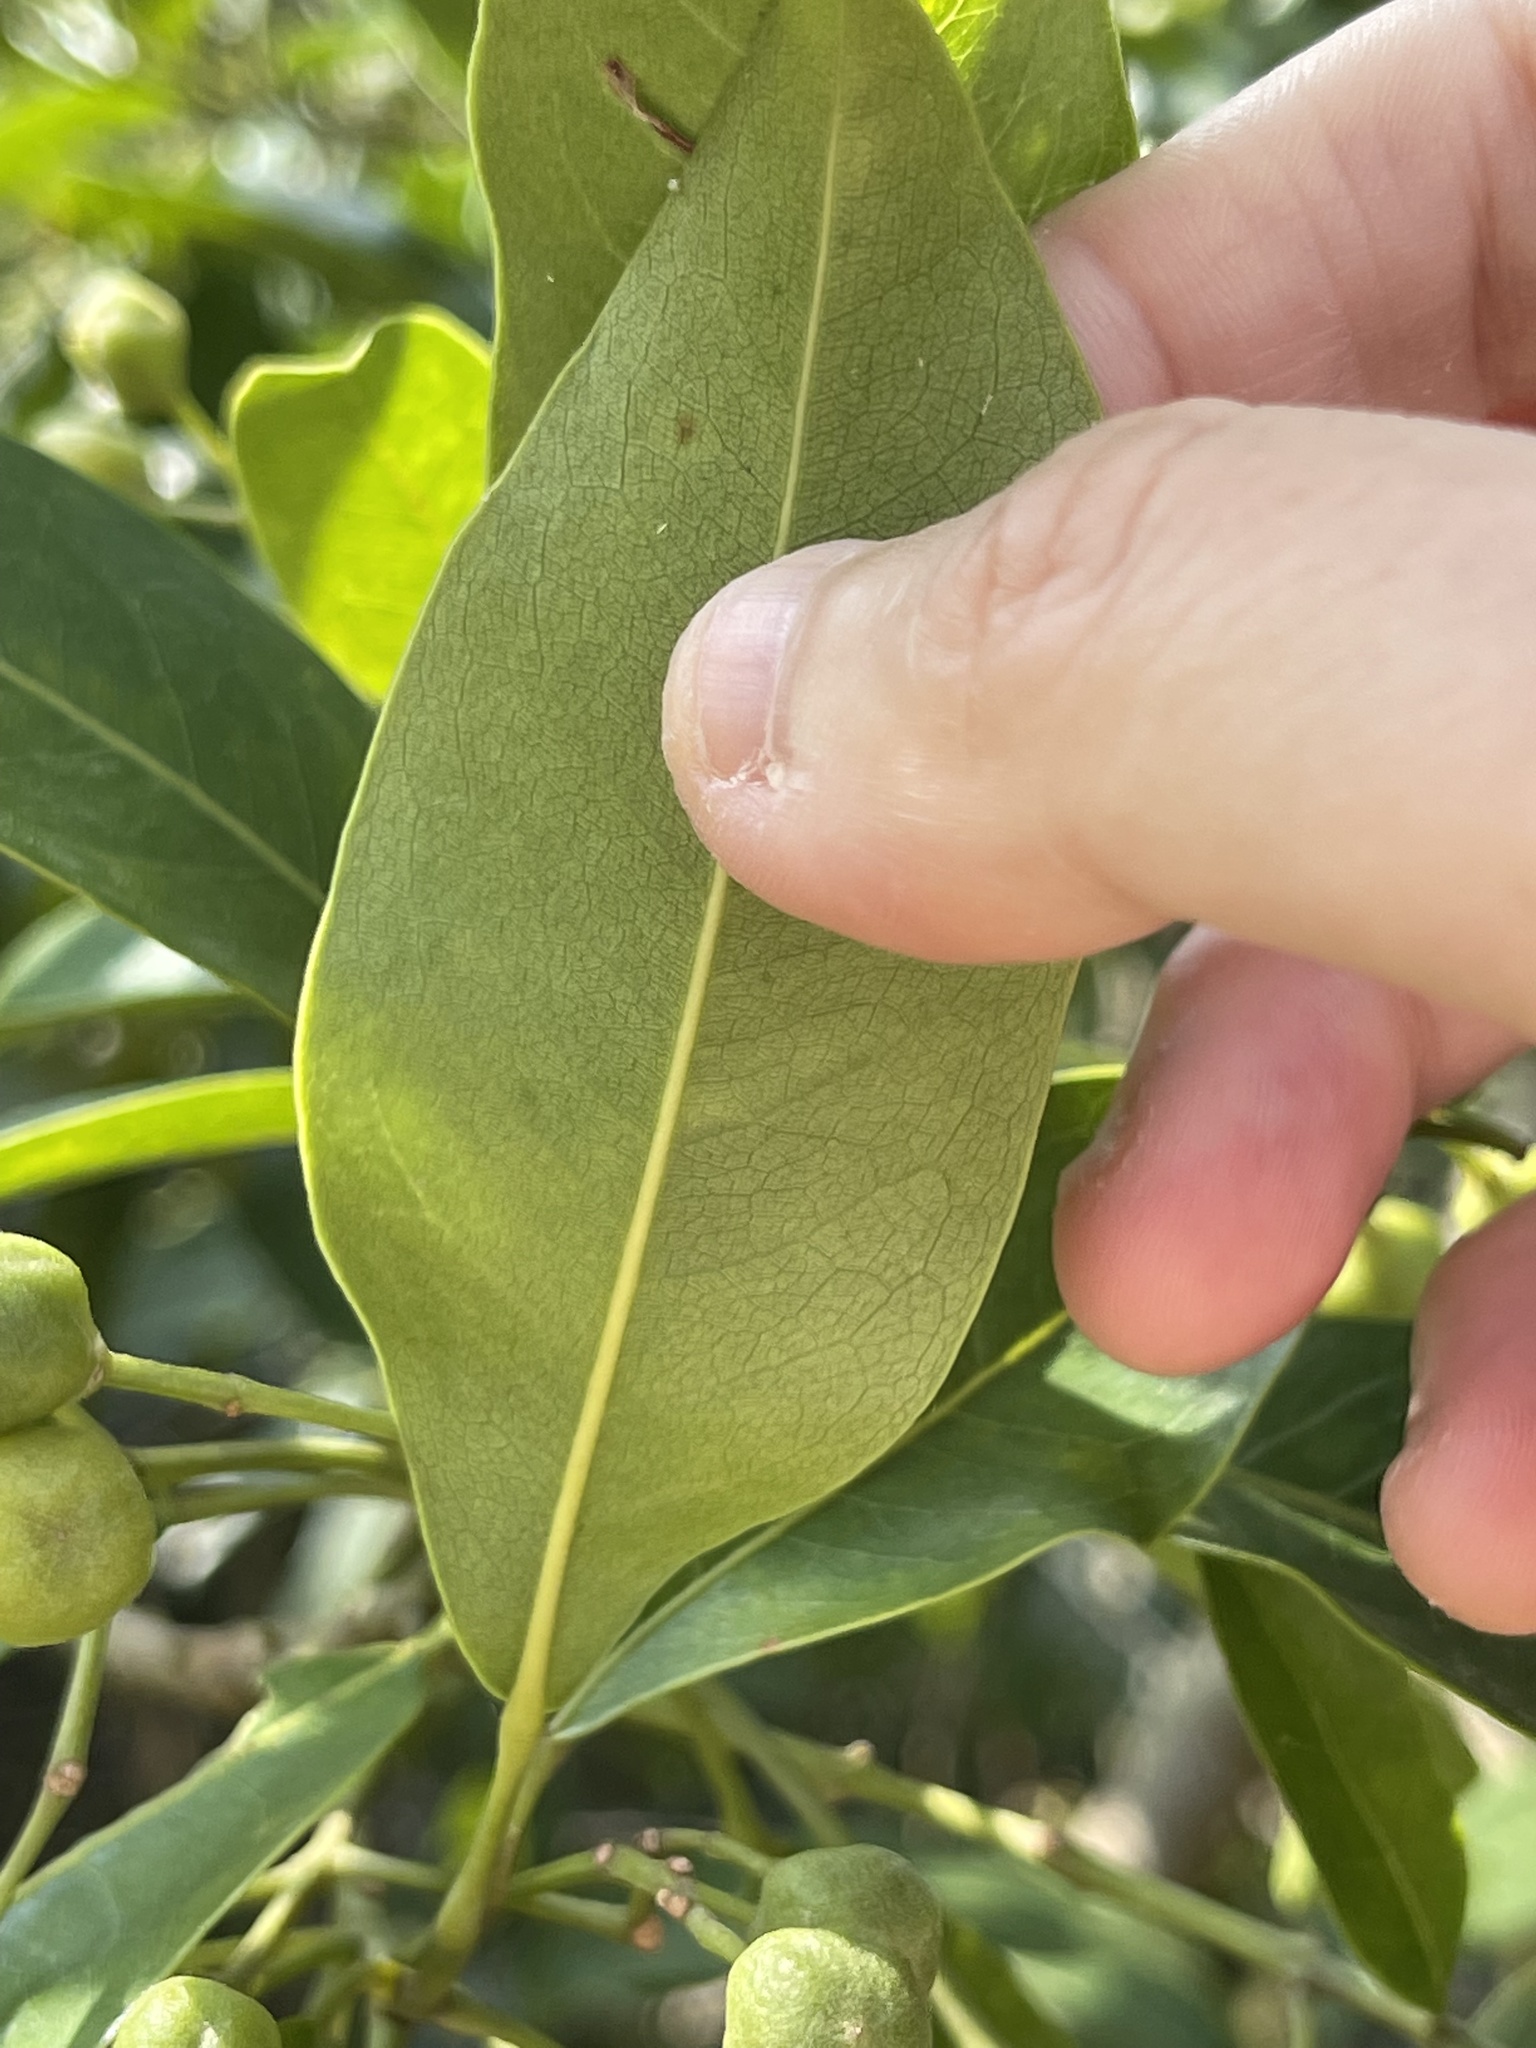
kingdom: Plantae
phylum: Tracheophyta
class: Magnoliopsida
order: Sapindales
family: Rutaceae
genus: Acronychia
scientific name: Acronychia pedunculata
